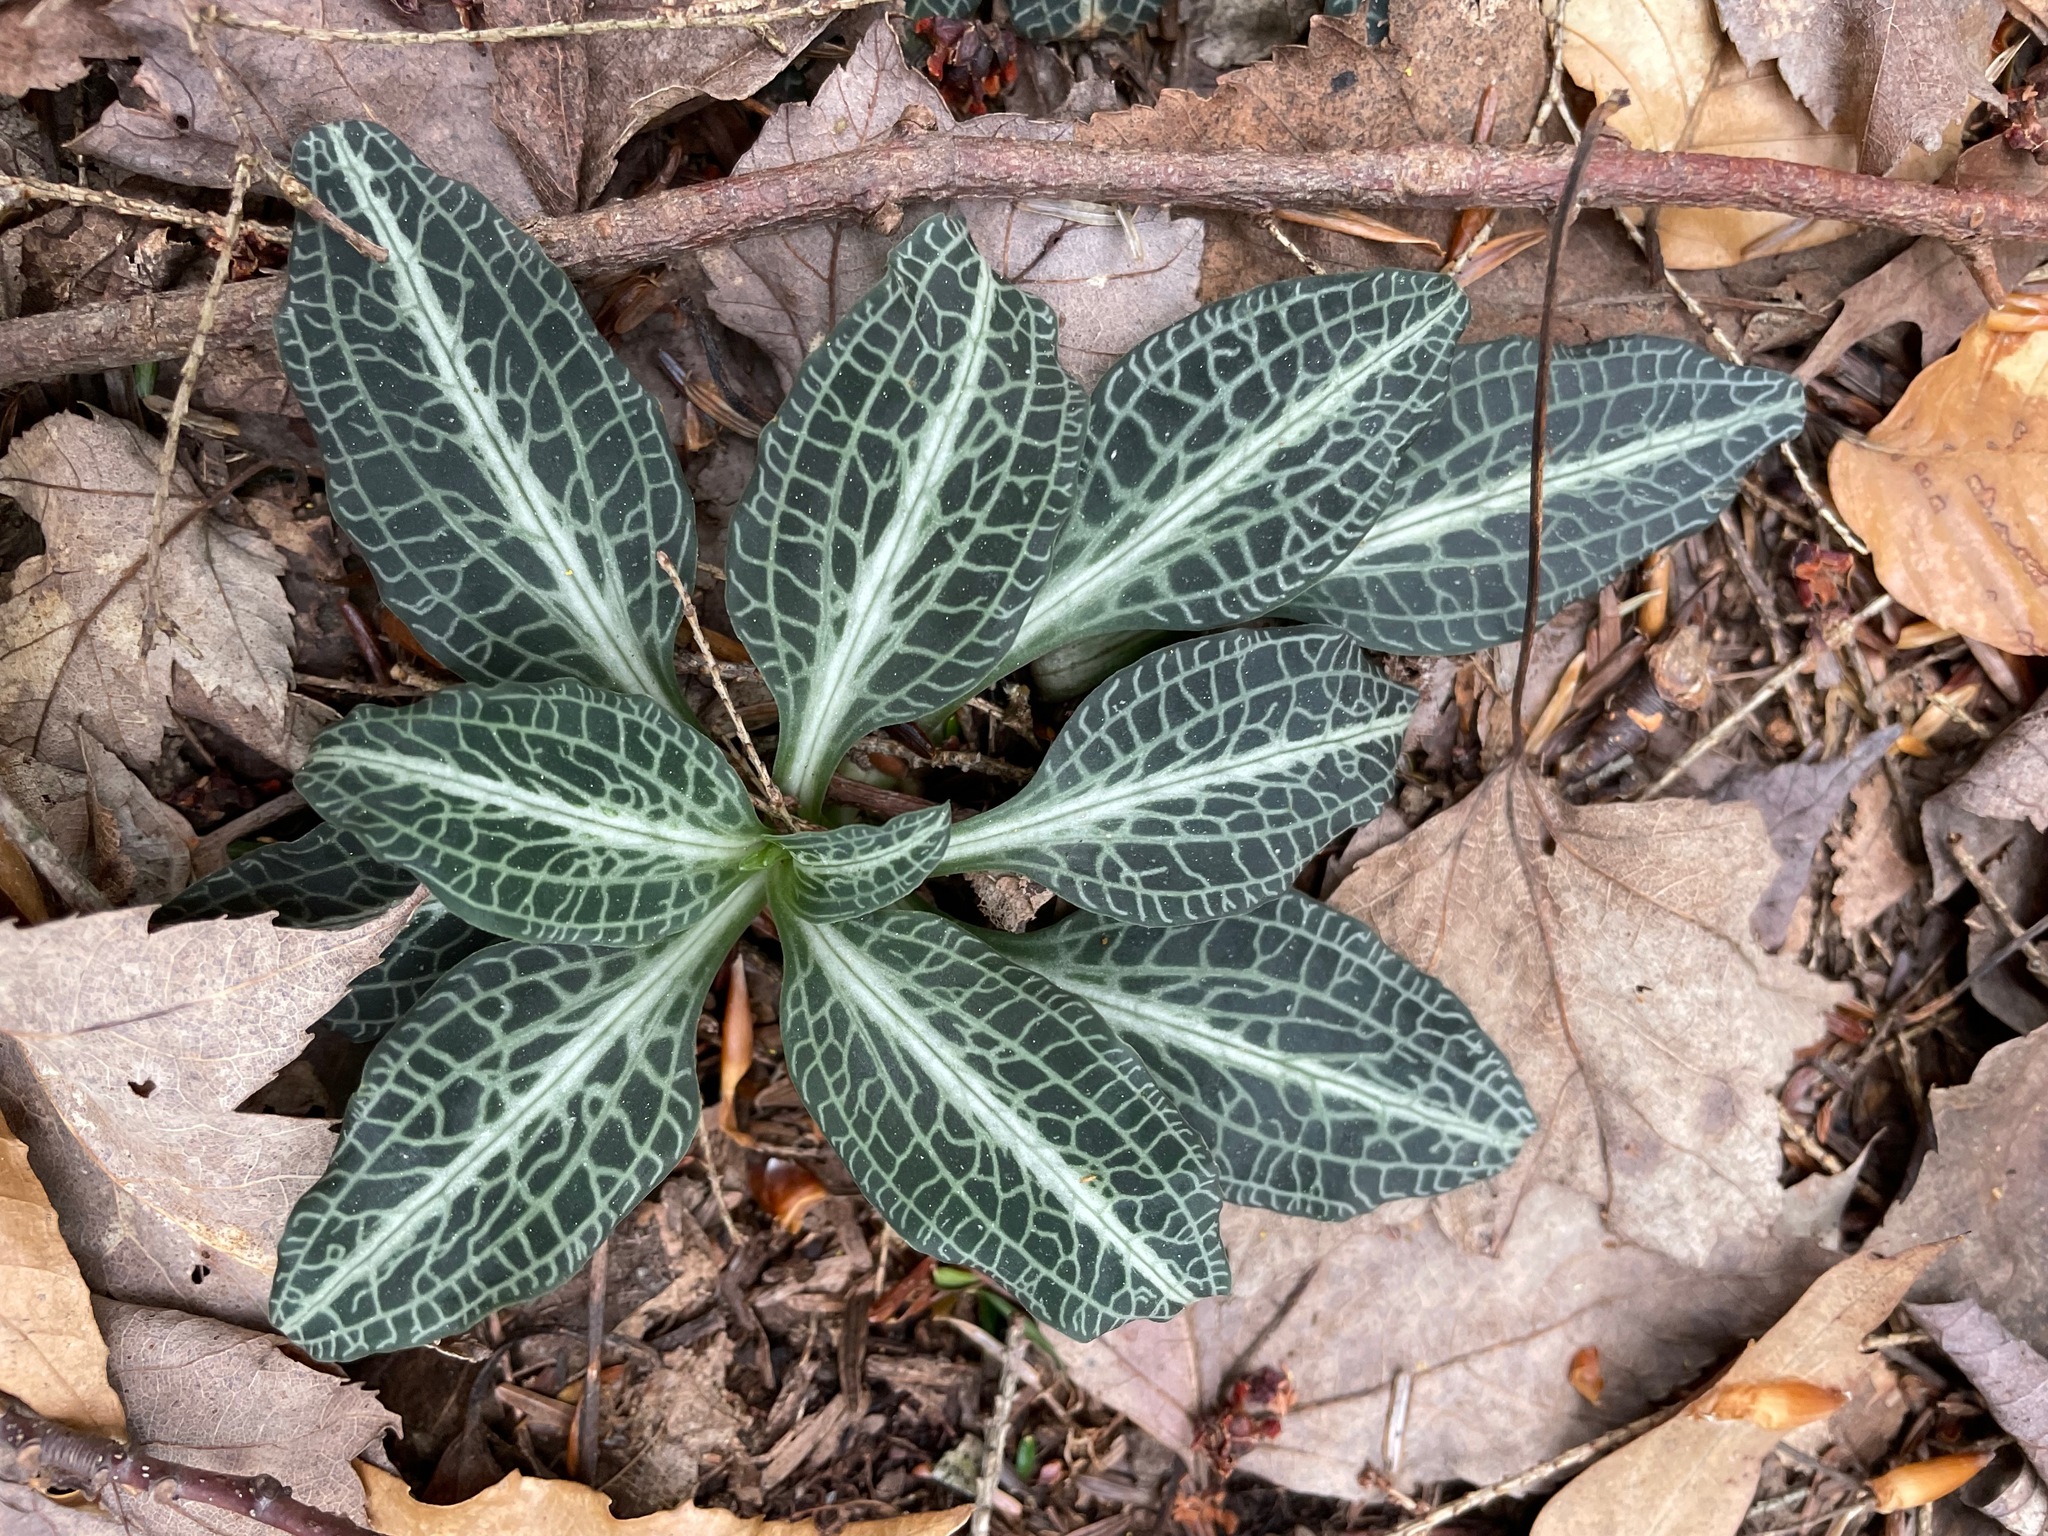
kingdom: Plantae
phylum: Tracheophyta
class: Liliopsida
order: Asparagales
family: Orchidaceae
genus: Goodyera
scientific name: Goodyera pubescens
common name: Downy rattlesnake-plantain
